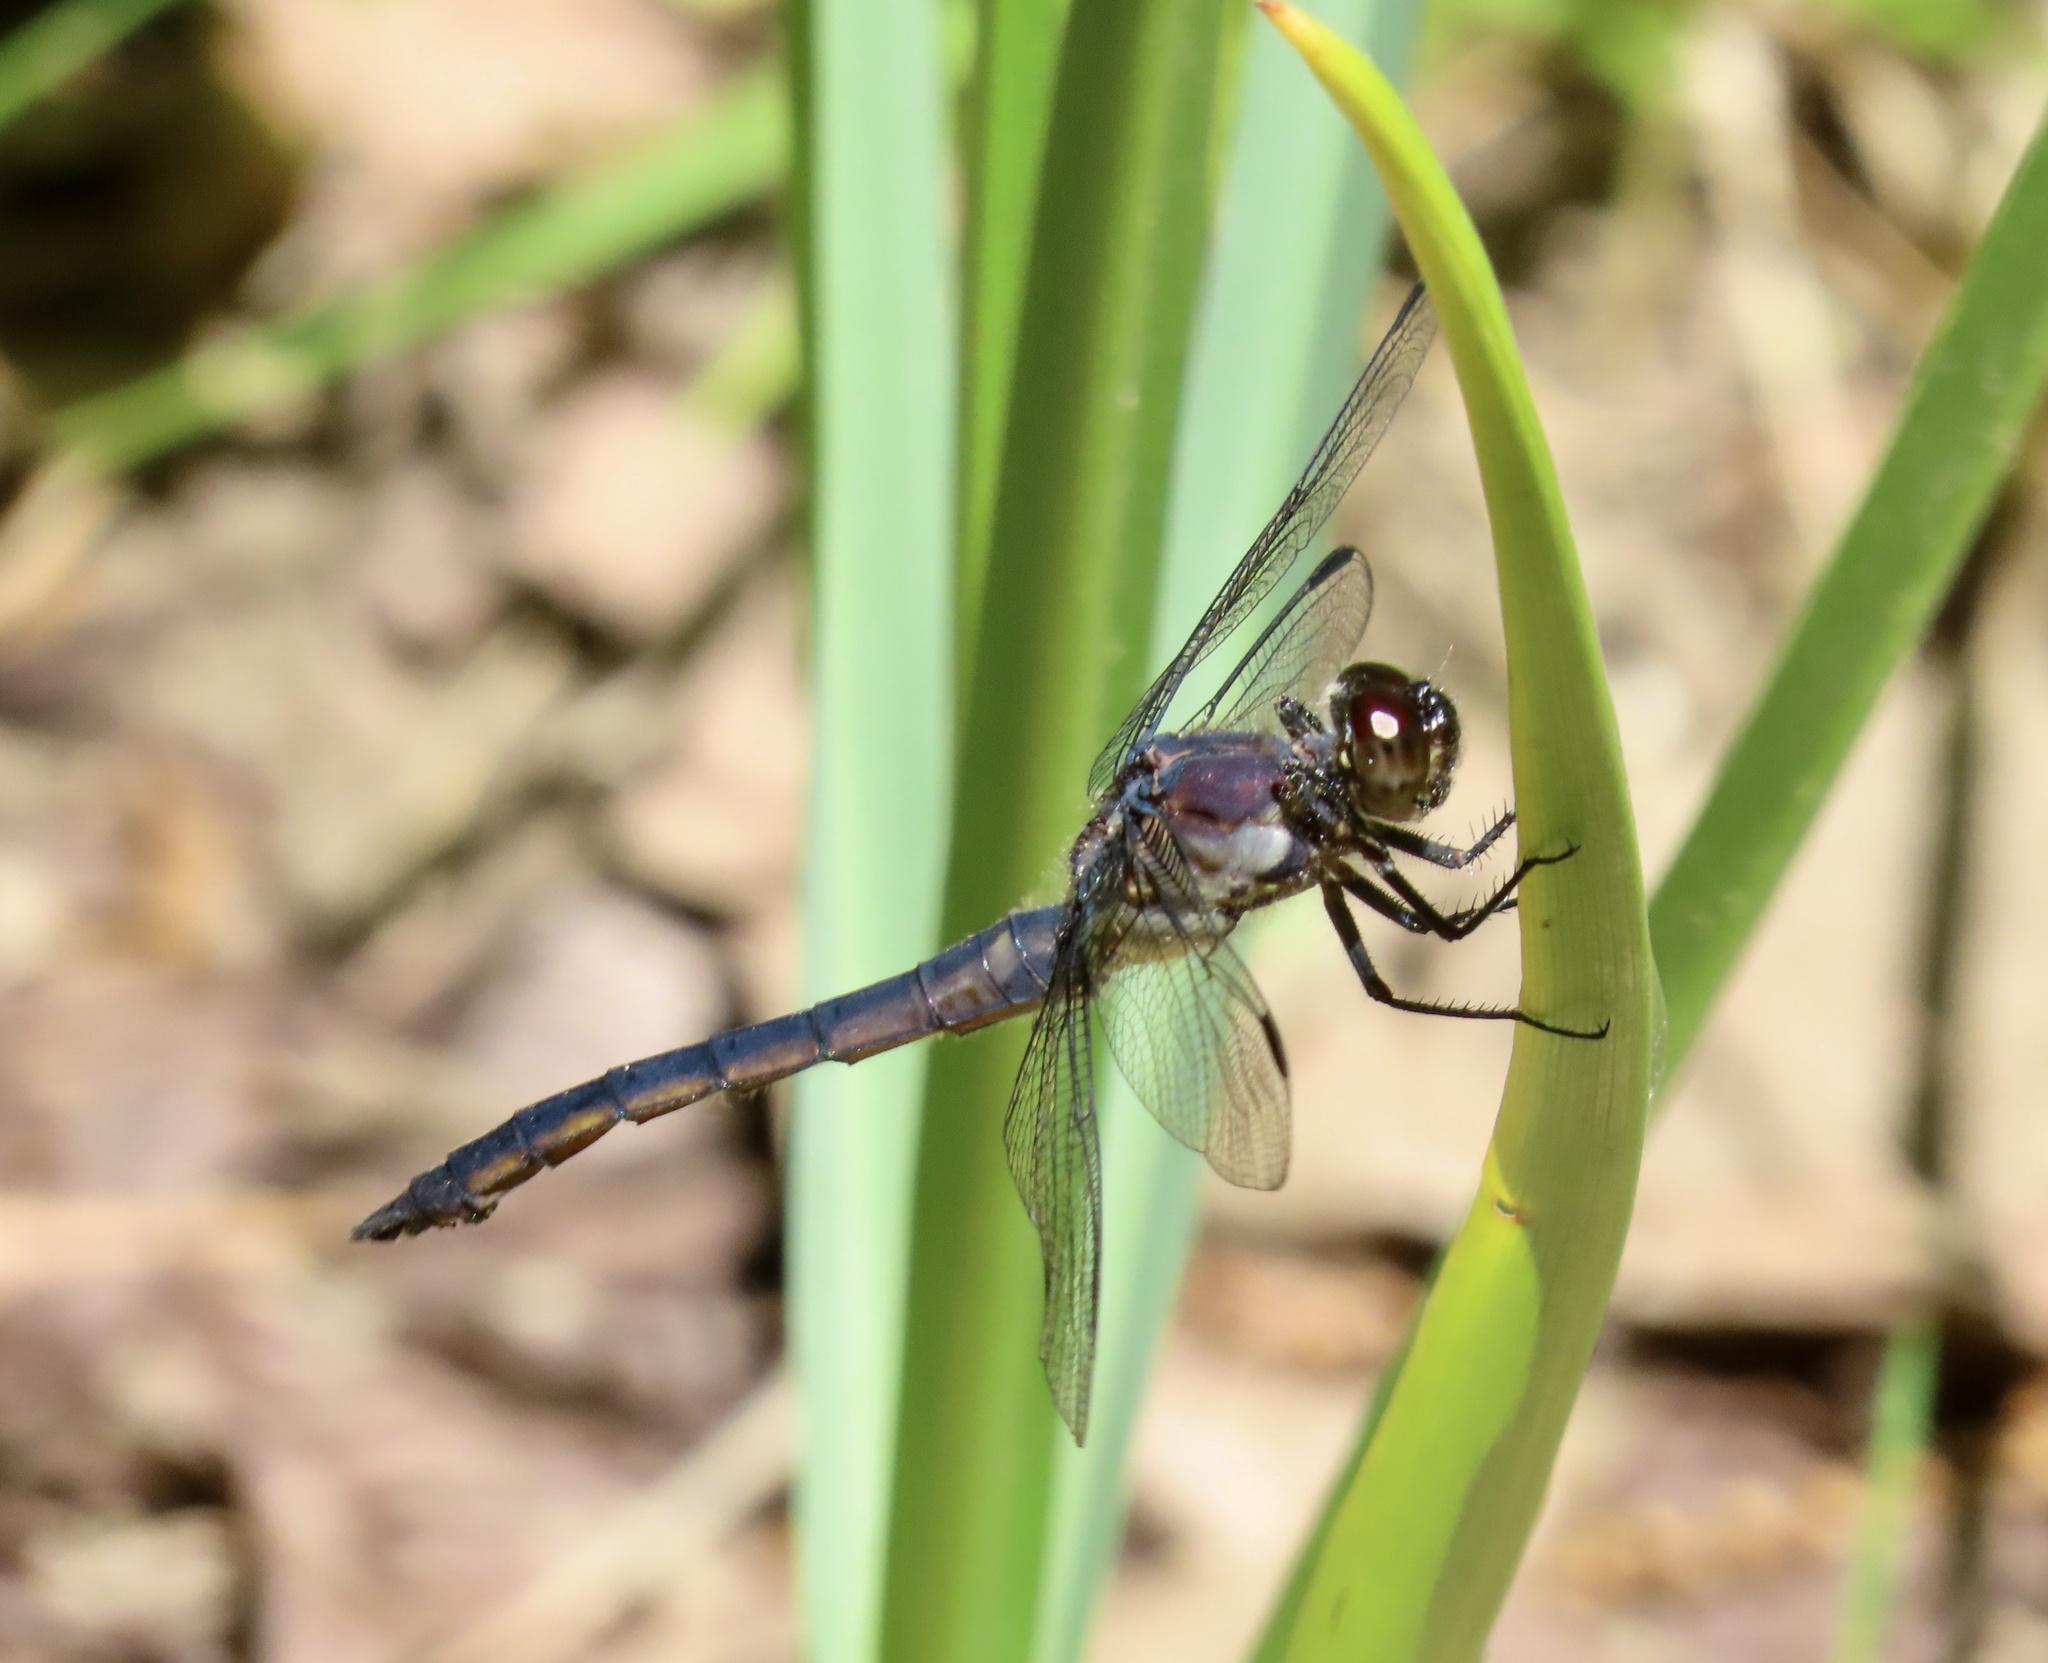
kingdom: Animalia
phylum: Arthropoda
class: Insecta
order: Odonata
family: Libellulidae
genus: Libellula
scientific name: Libellula incesta
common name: Slaty skimmer
